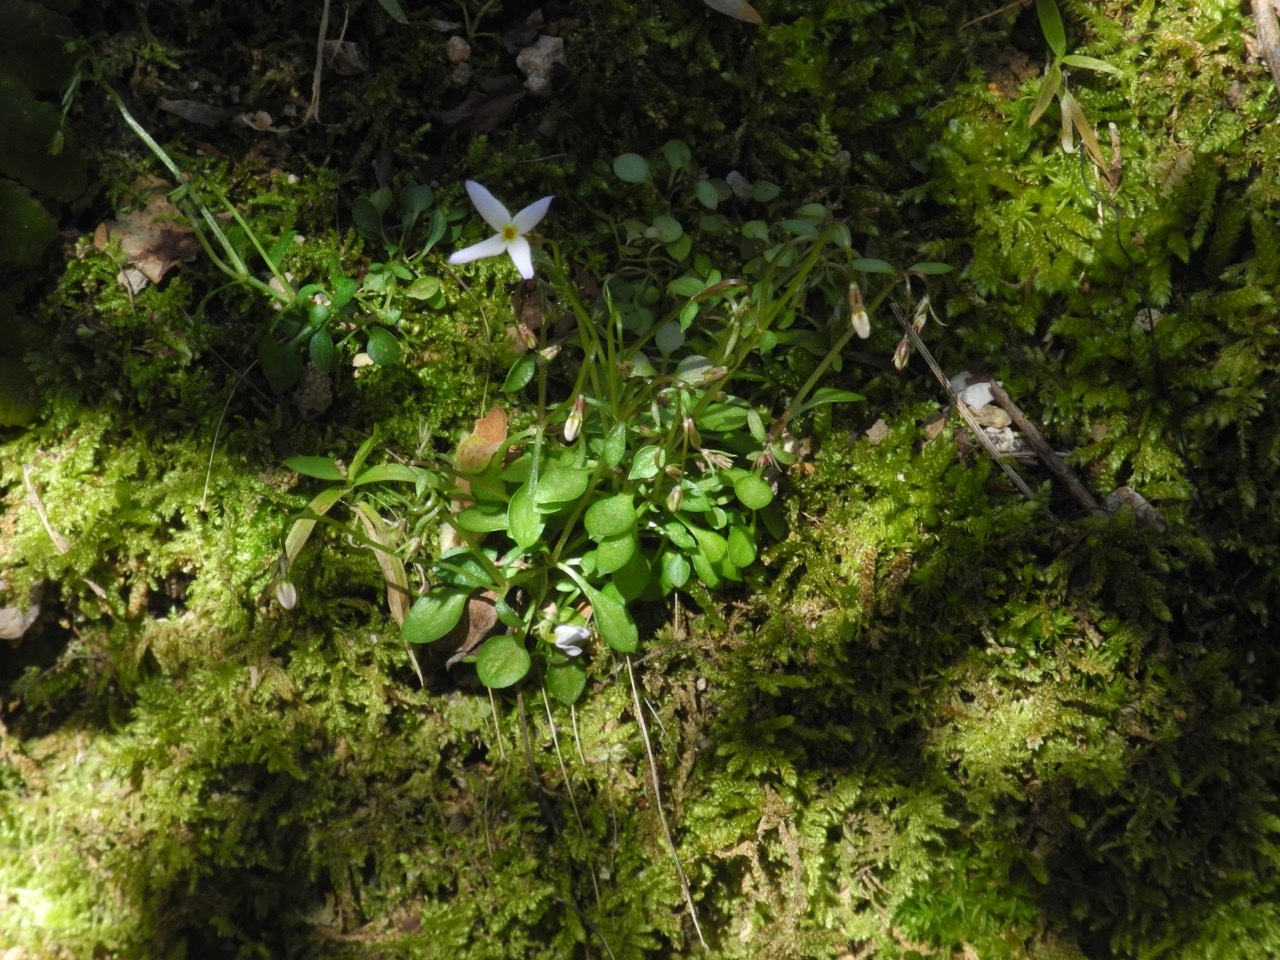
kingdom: Plantae
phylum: Tracheophyta
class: Magnoliopsida
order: Gentianales
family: Rubiaceae
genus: Houstonia
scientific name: Houstonia caerulea
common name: Bluets
